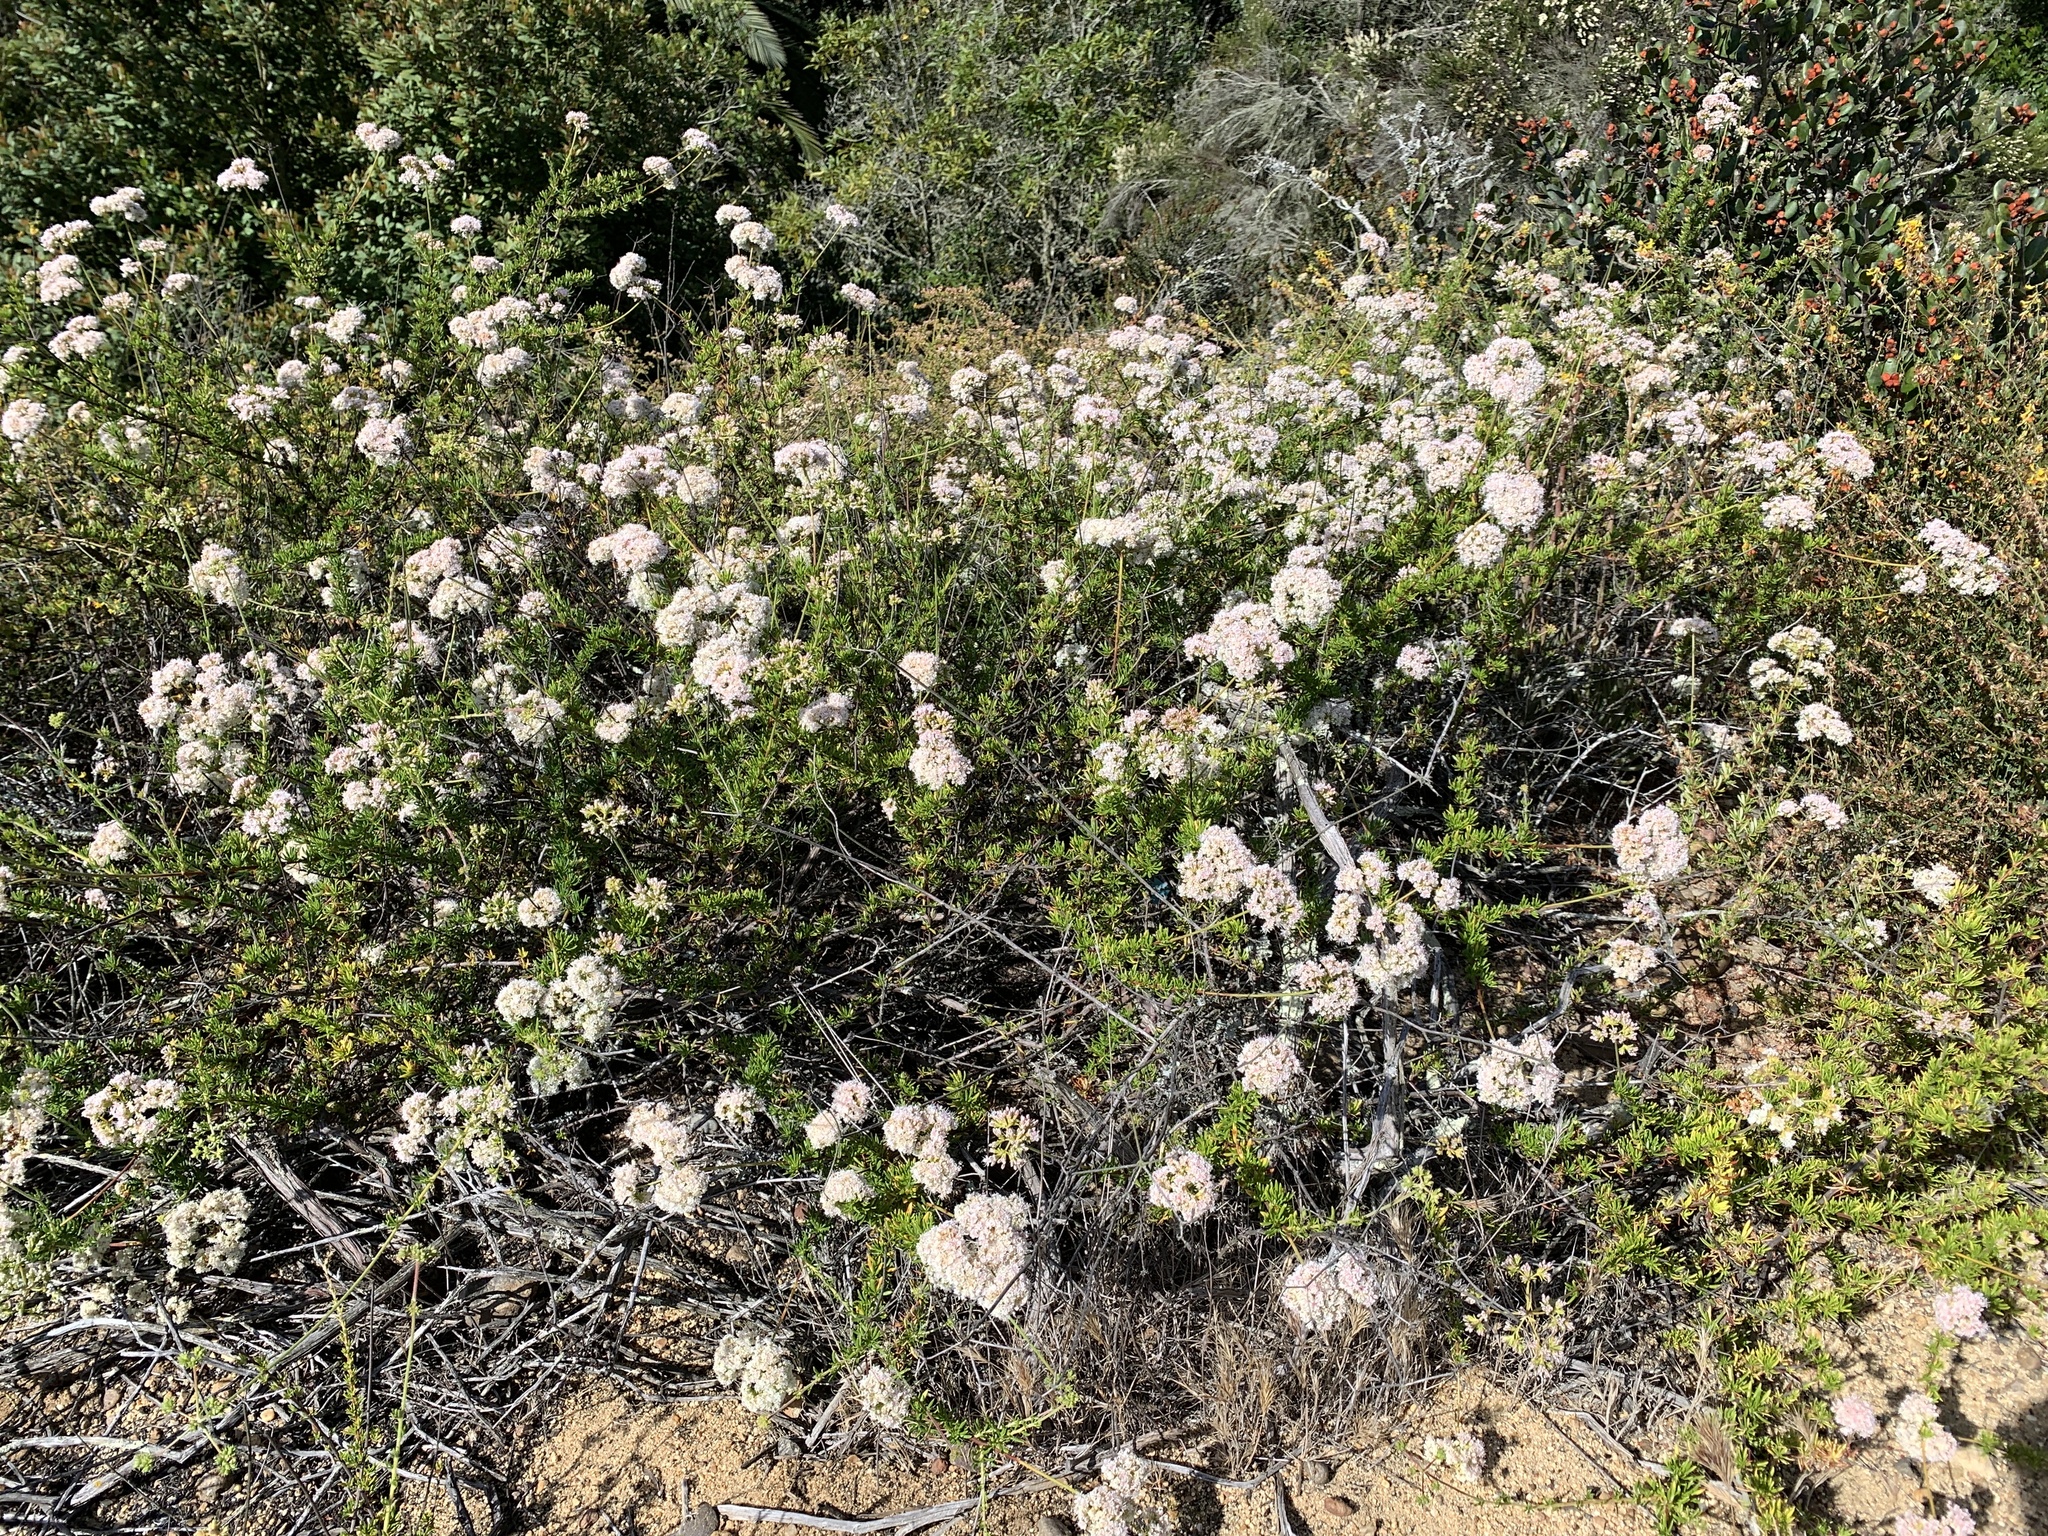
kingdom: Plantae
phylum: Tracheophyta
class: Magnoliopsida
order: Caryophyllales
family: Polygonaceae
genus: Eriogonum
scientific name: Eriogonum fasciculatum
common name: California wild buckwheat
